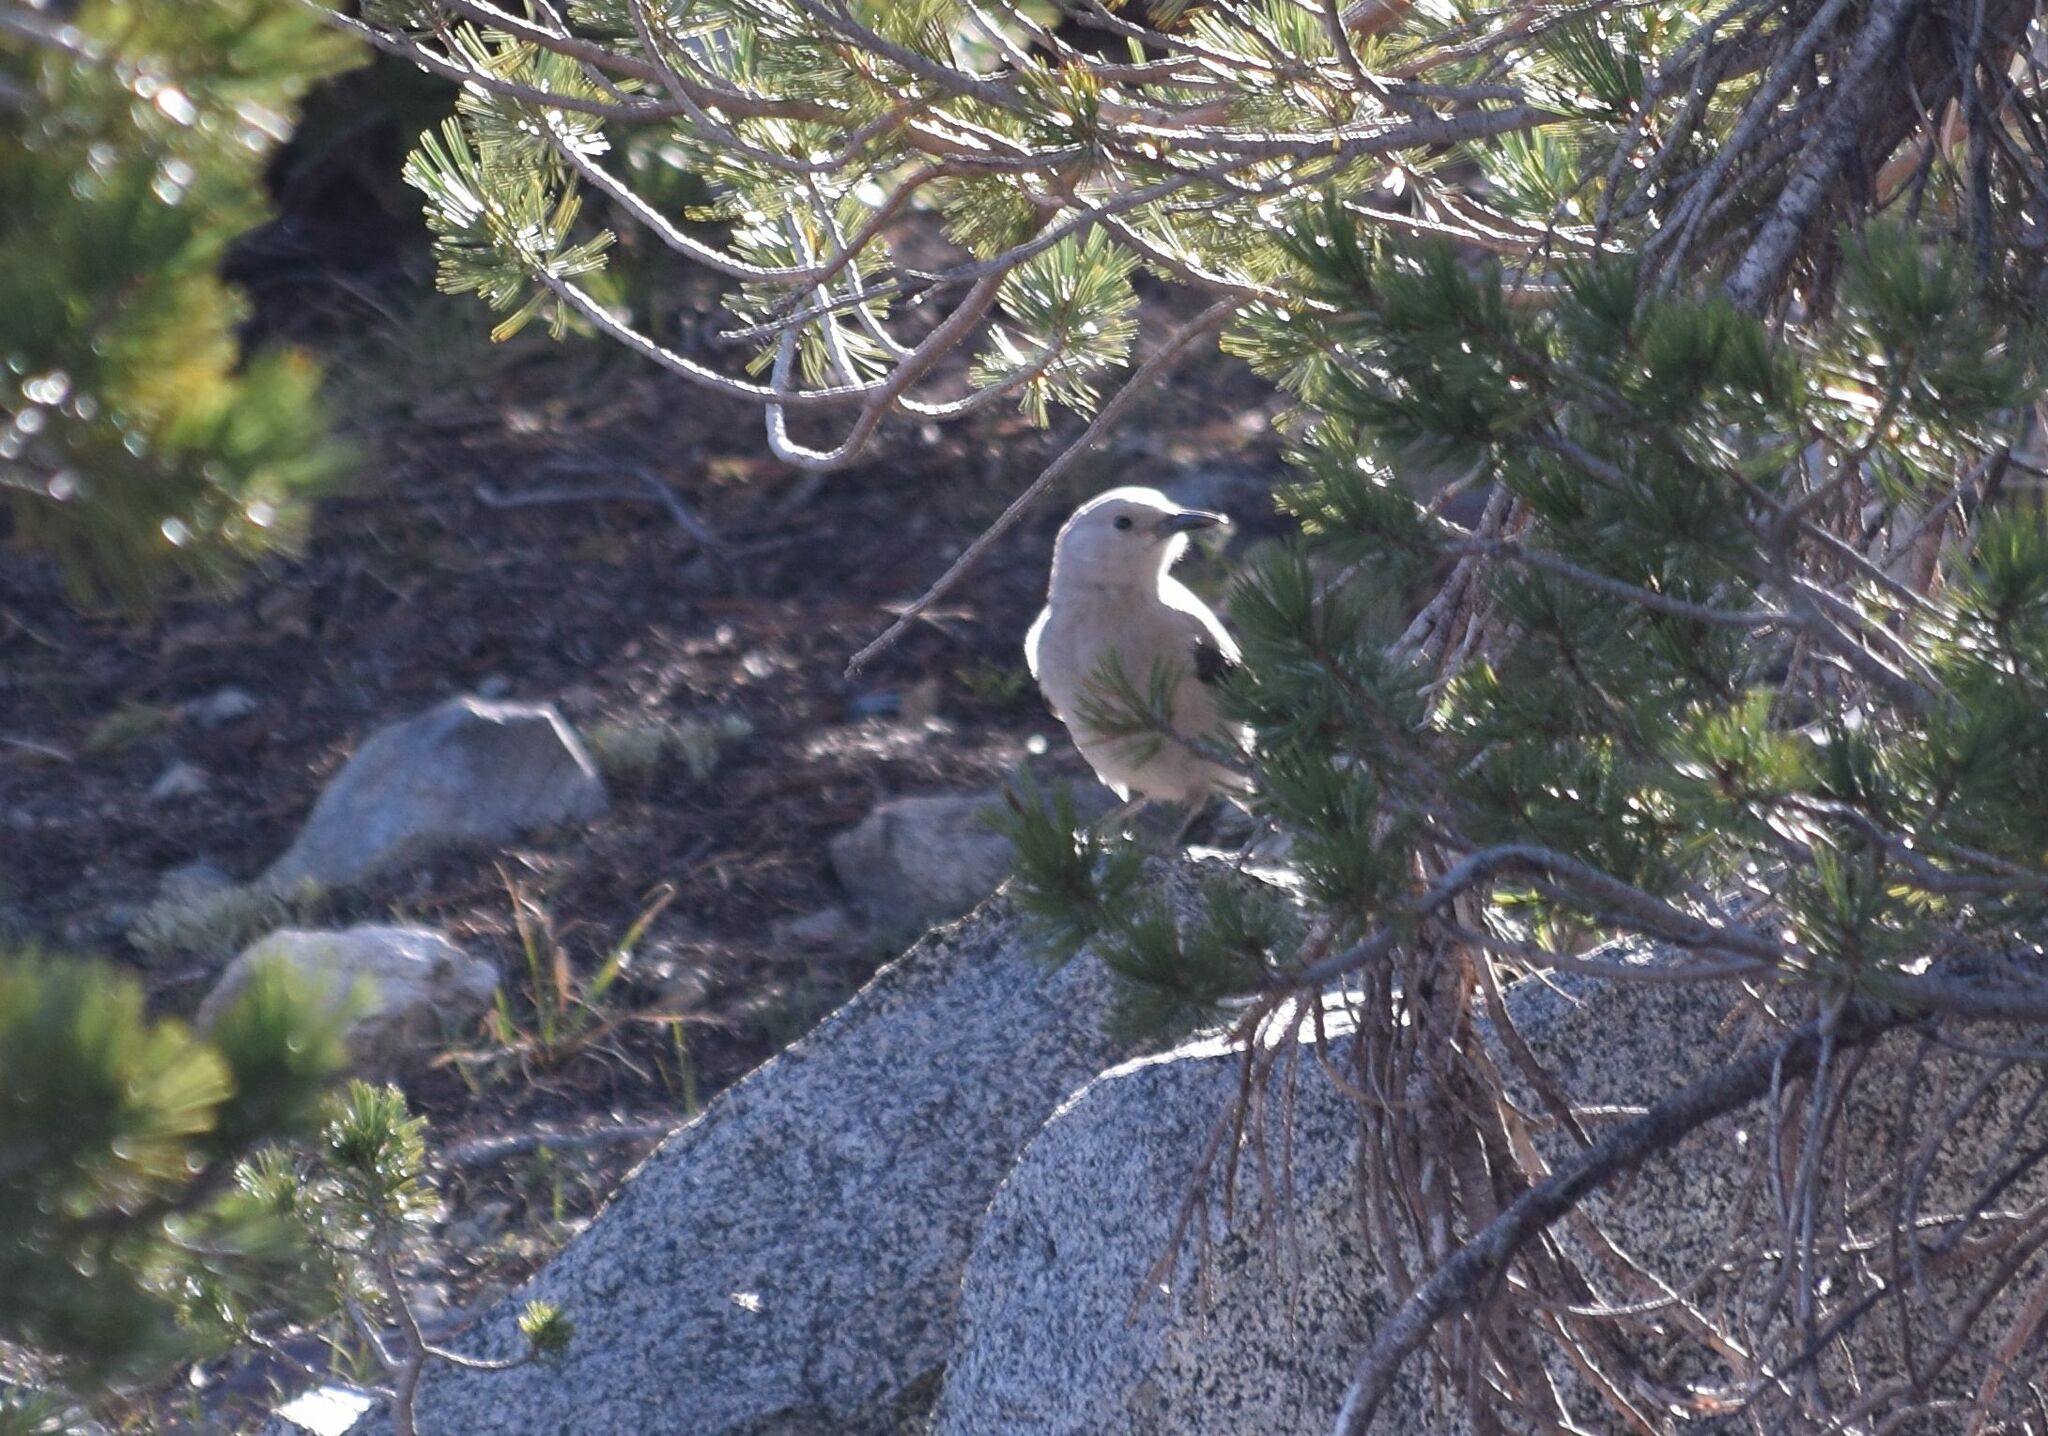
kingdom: Animalia
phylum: Chordata
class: Aves
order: Passeriformes
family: Corvidae
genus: Nucifraga
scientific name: Nucifraga columbiana
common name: Clark's nutcracker
